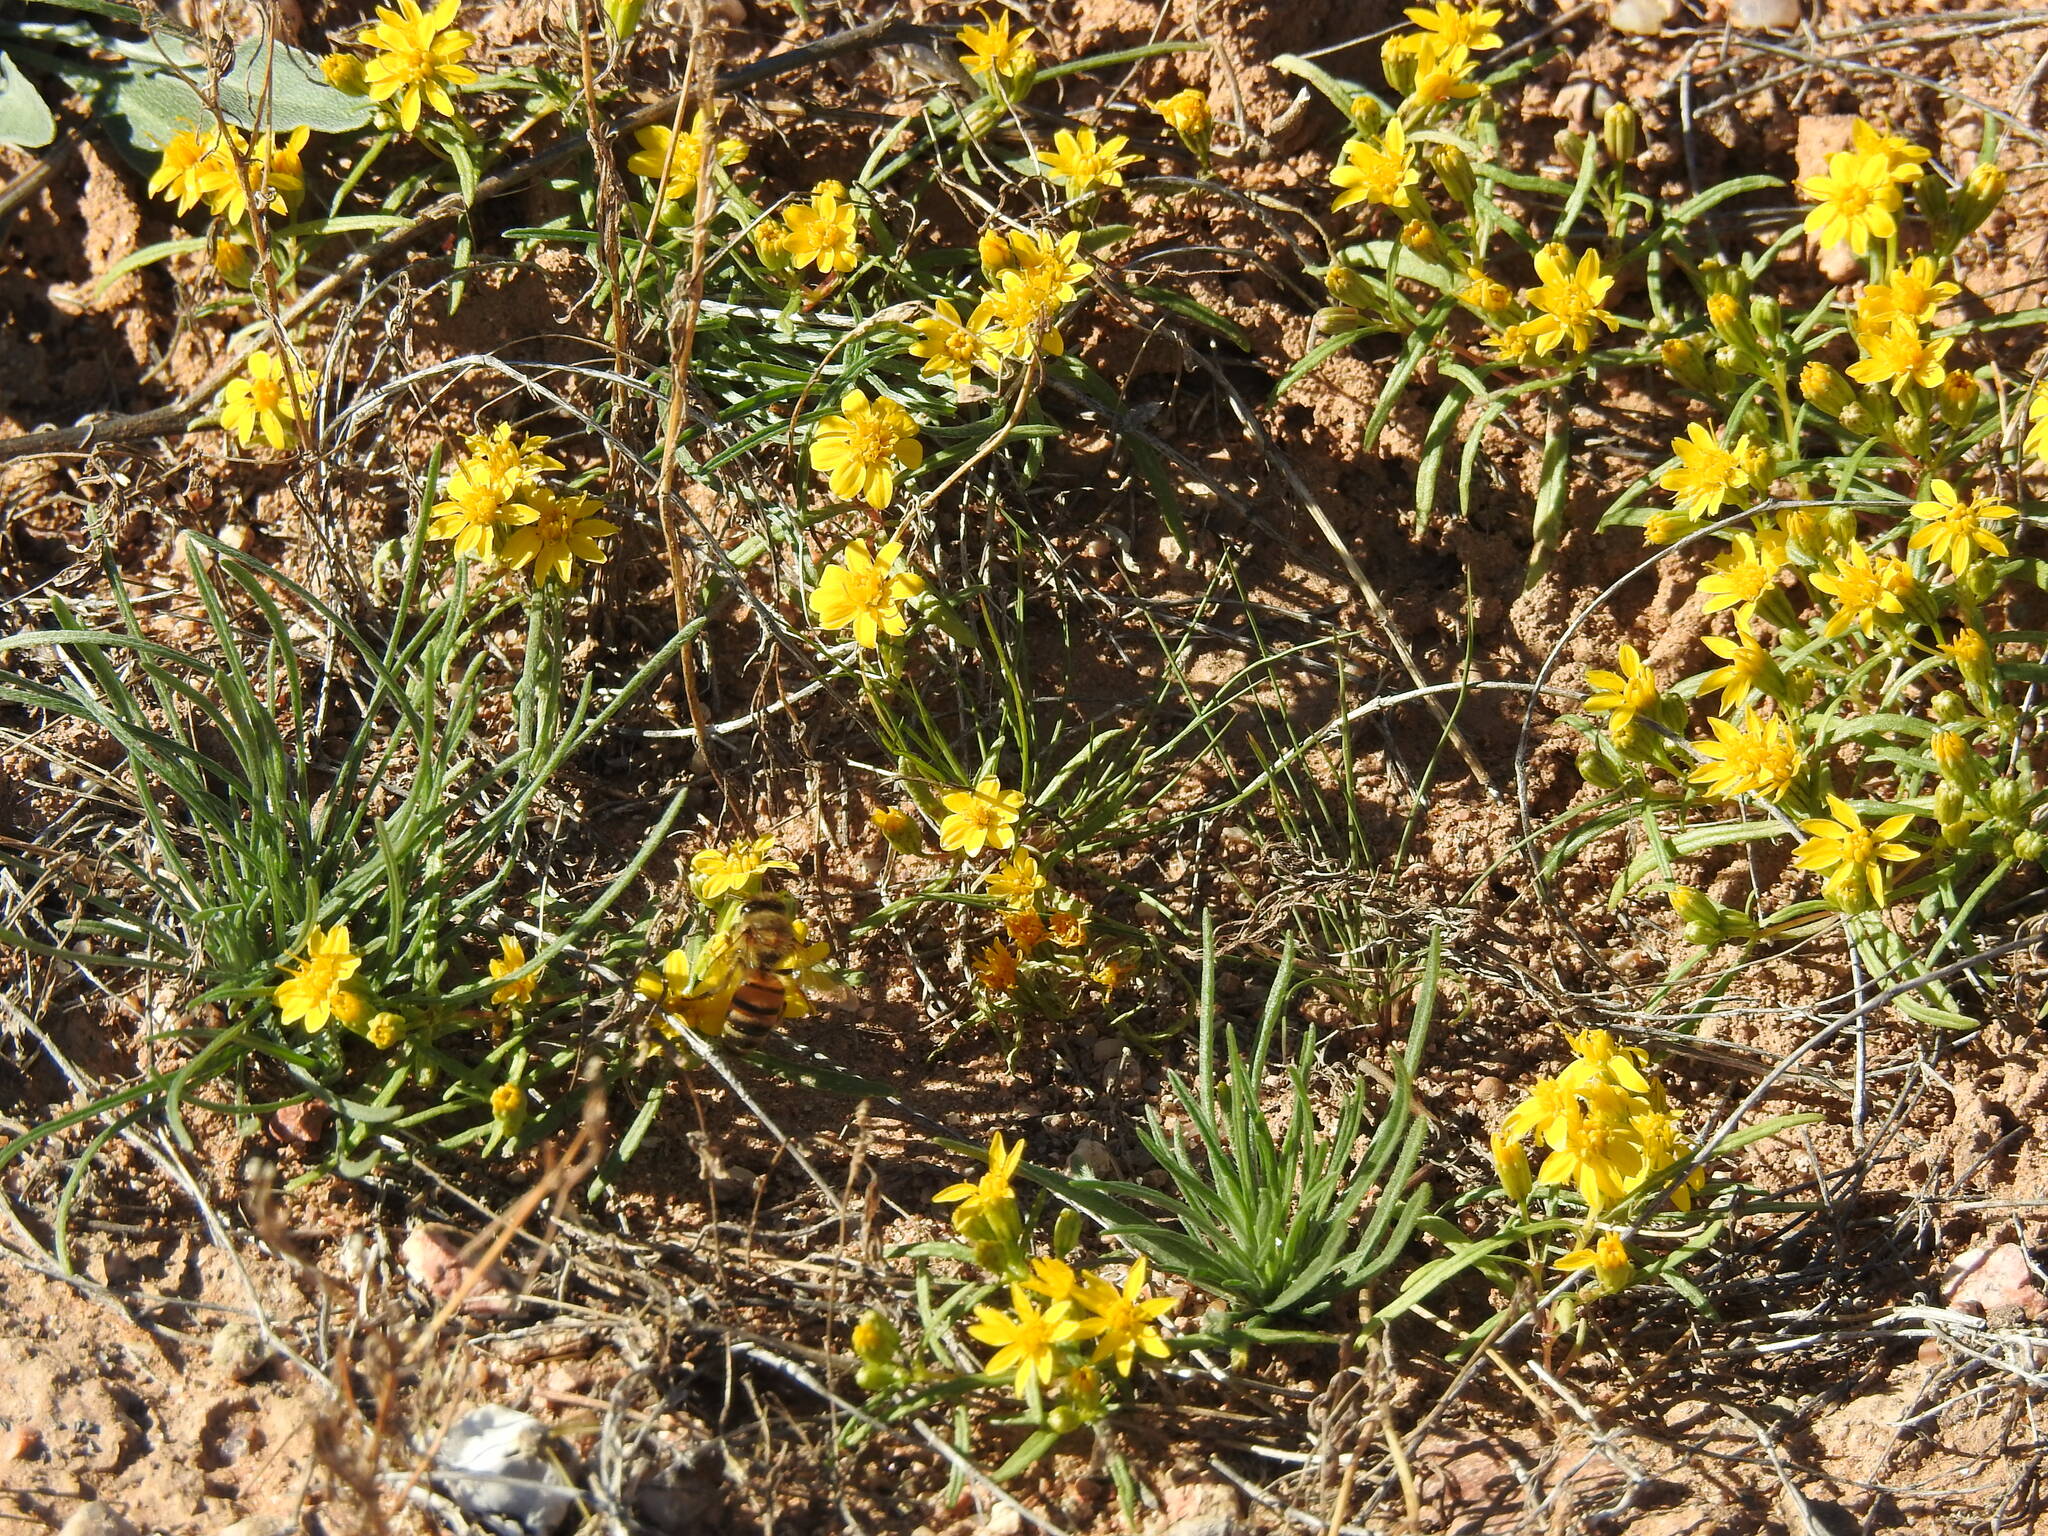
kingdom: Animalia
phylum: Arthropoda
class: Insecta
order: Hymenoptera
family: Apidae
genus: Apis
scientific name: Apis mellifera
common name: Honey bee
